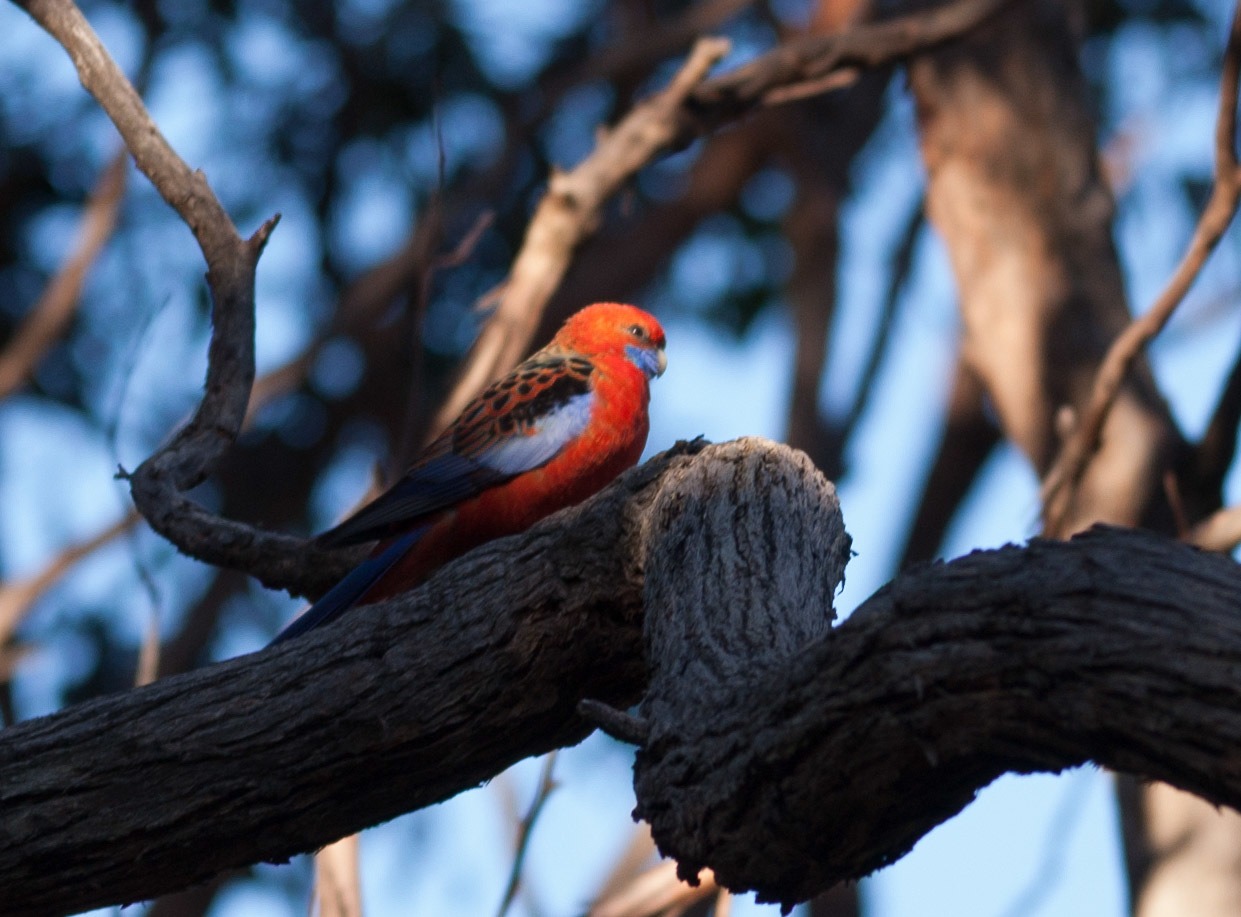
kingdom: Animalia
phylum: Chordata
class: Aves
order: Psittaciformes
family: Psittacidae
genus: Platycercus
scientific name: Platycercus elegans
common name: Crimson rosella
